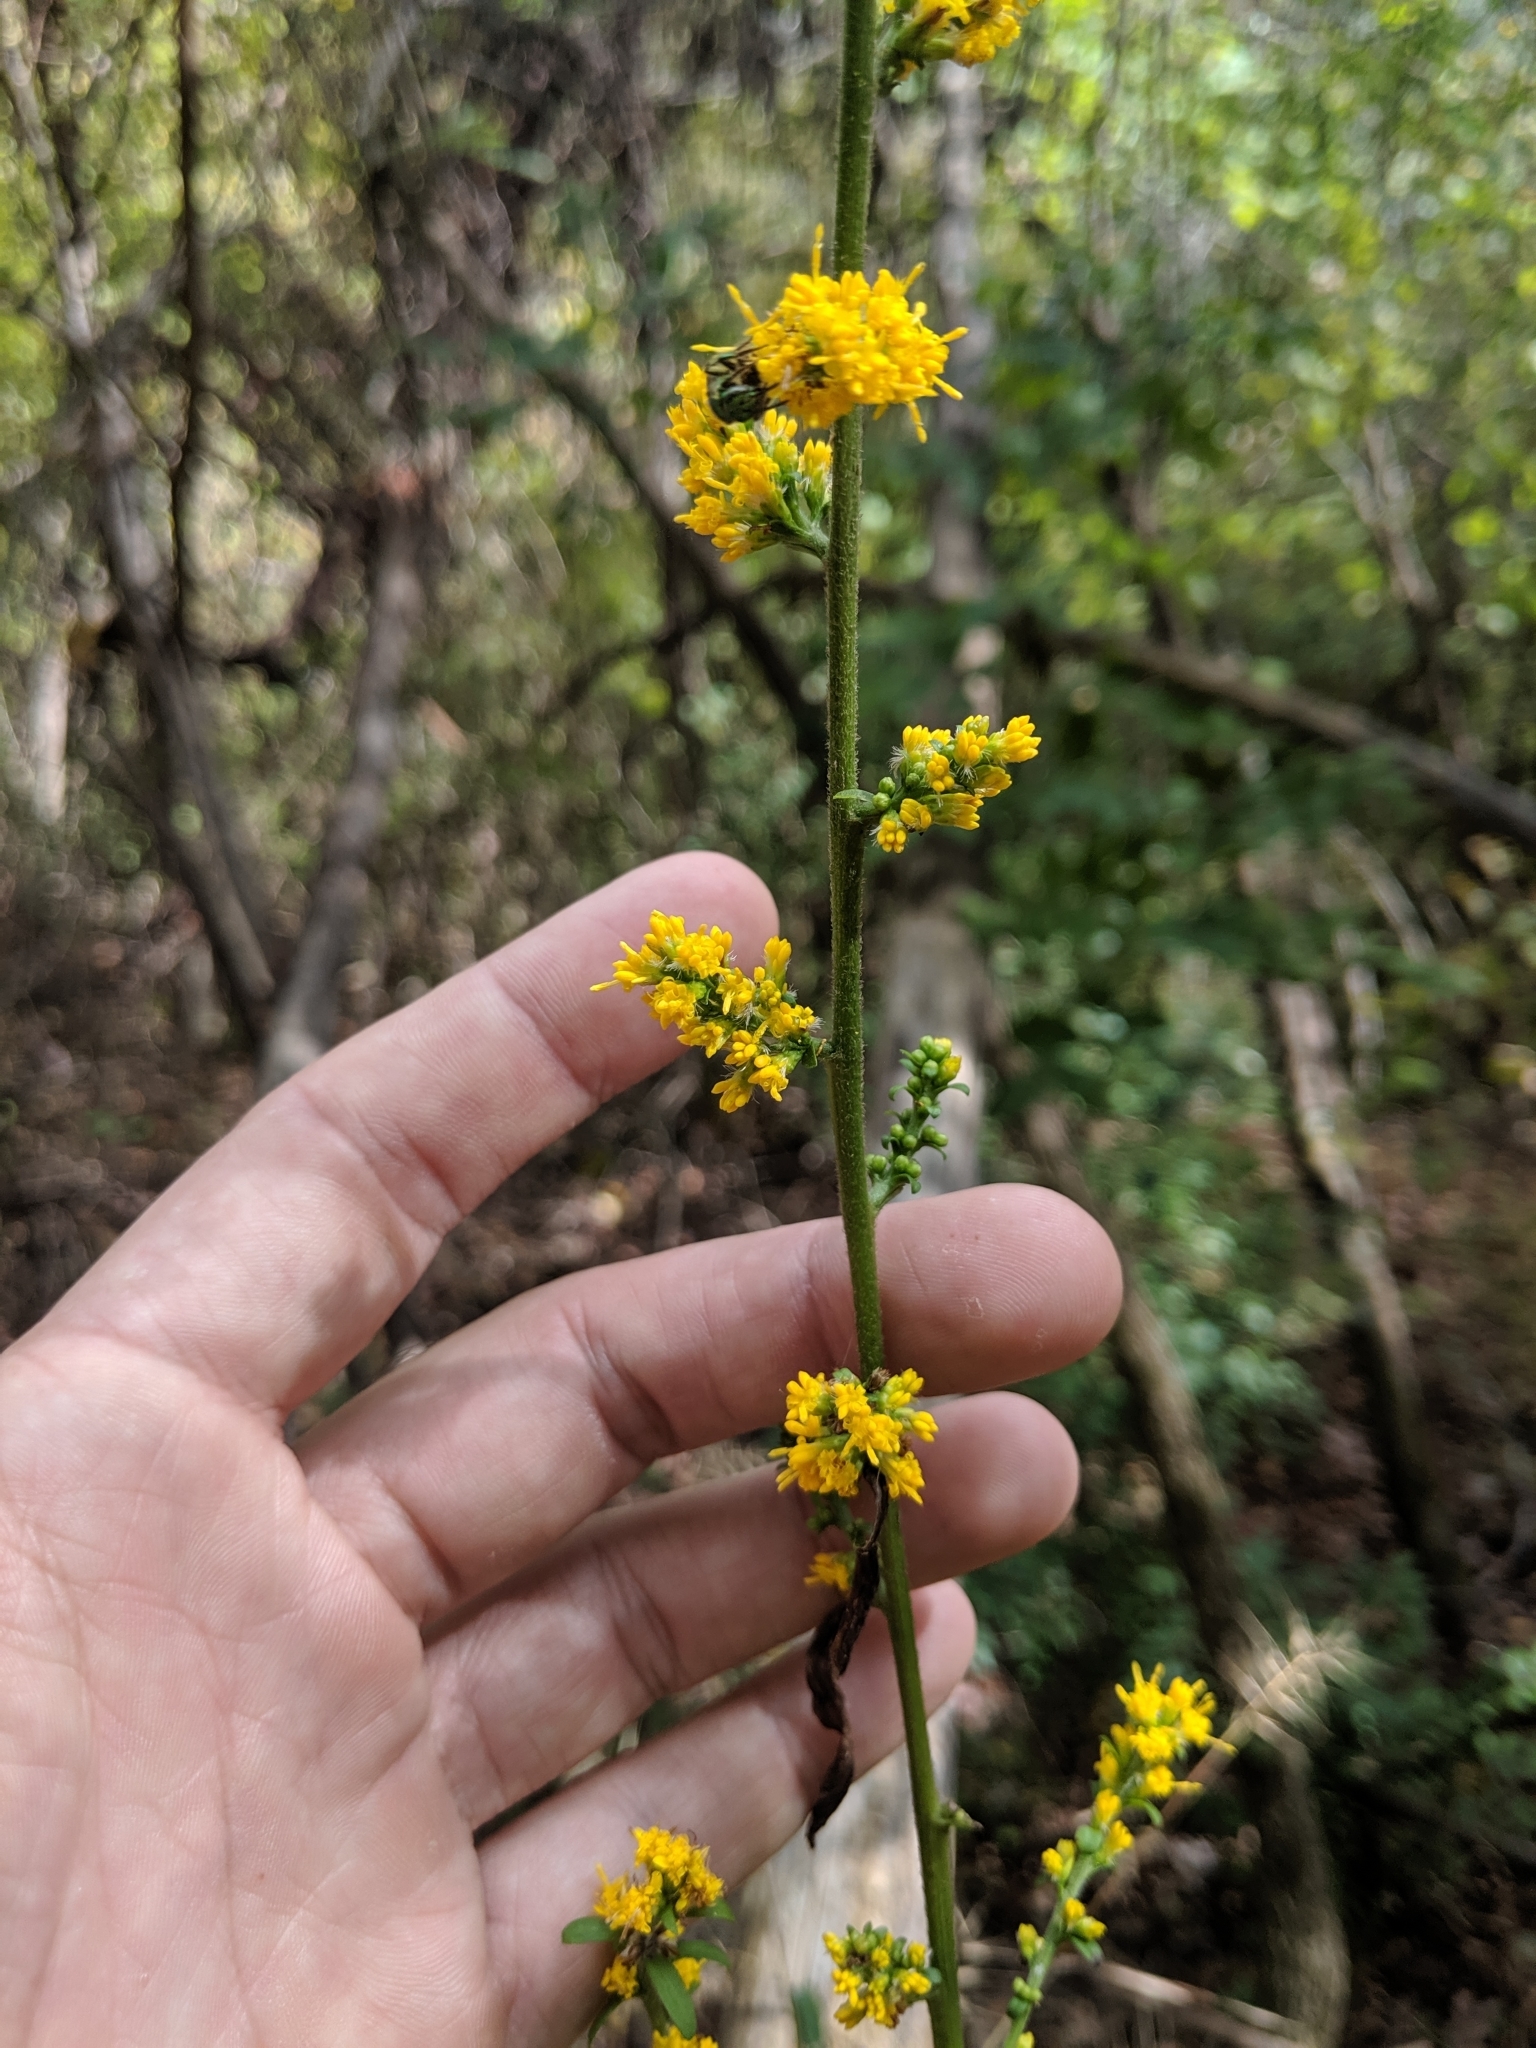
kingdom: Plantae
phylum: Tracheophyta
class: Magnoliopsida
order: Asterales
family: Asteraceae
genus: Solidago
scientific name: Solidago flexicaulis
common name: Zig-zag goldenrod
